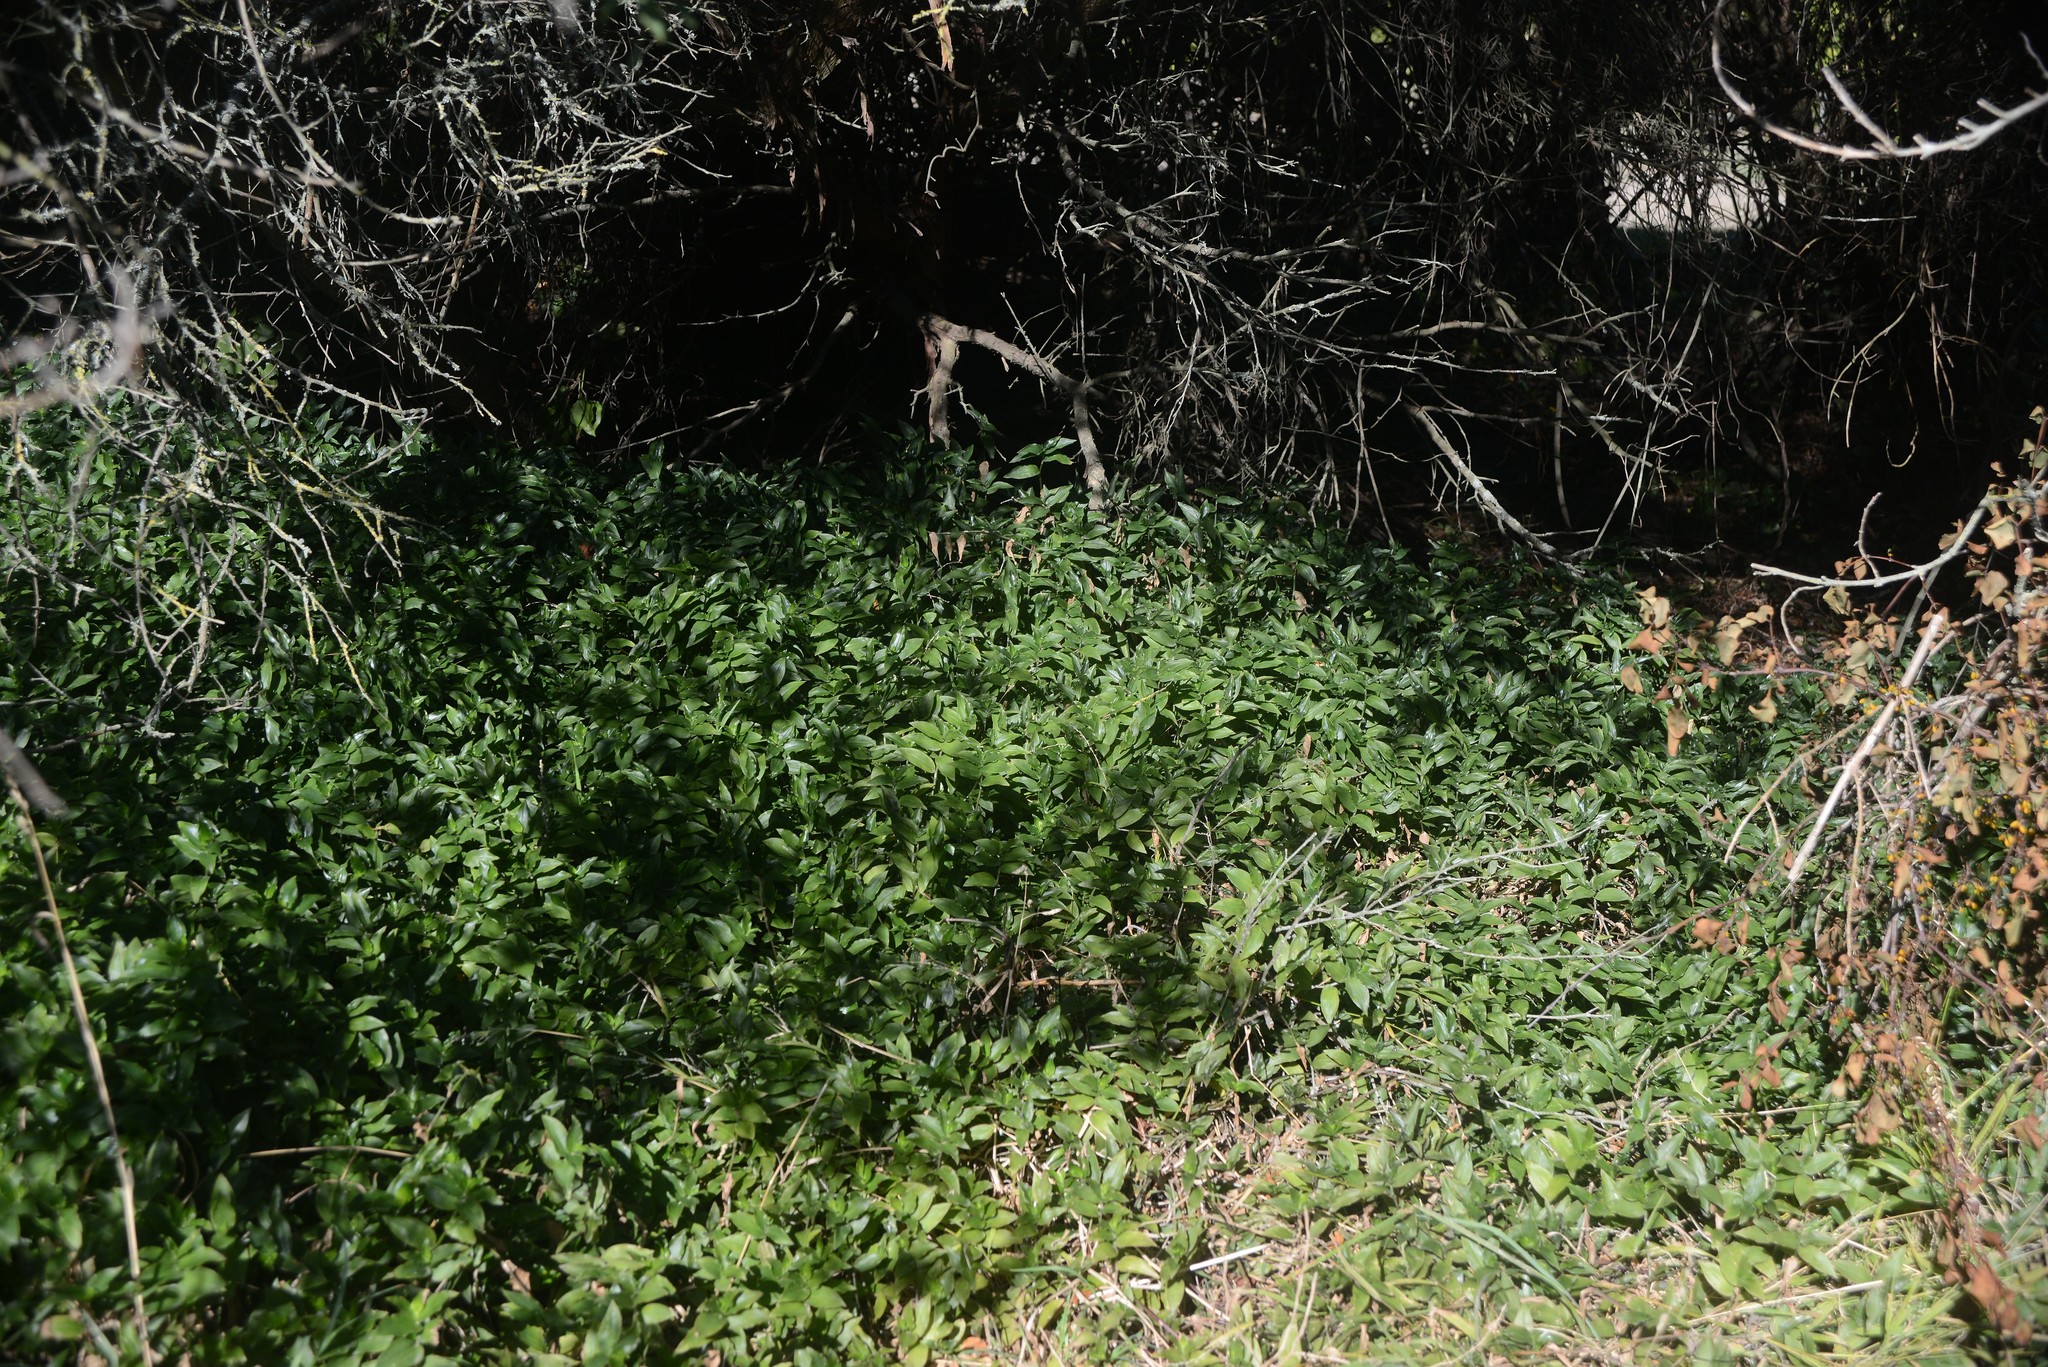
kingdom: Plantae
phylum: Tracheophyta
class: Liliopsida
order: Commelinales
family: Commelinaceae
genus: Tradescantia
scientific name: Tradescantia fluminensis
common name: Wandering-jew
